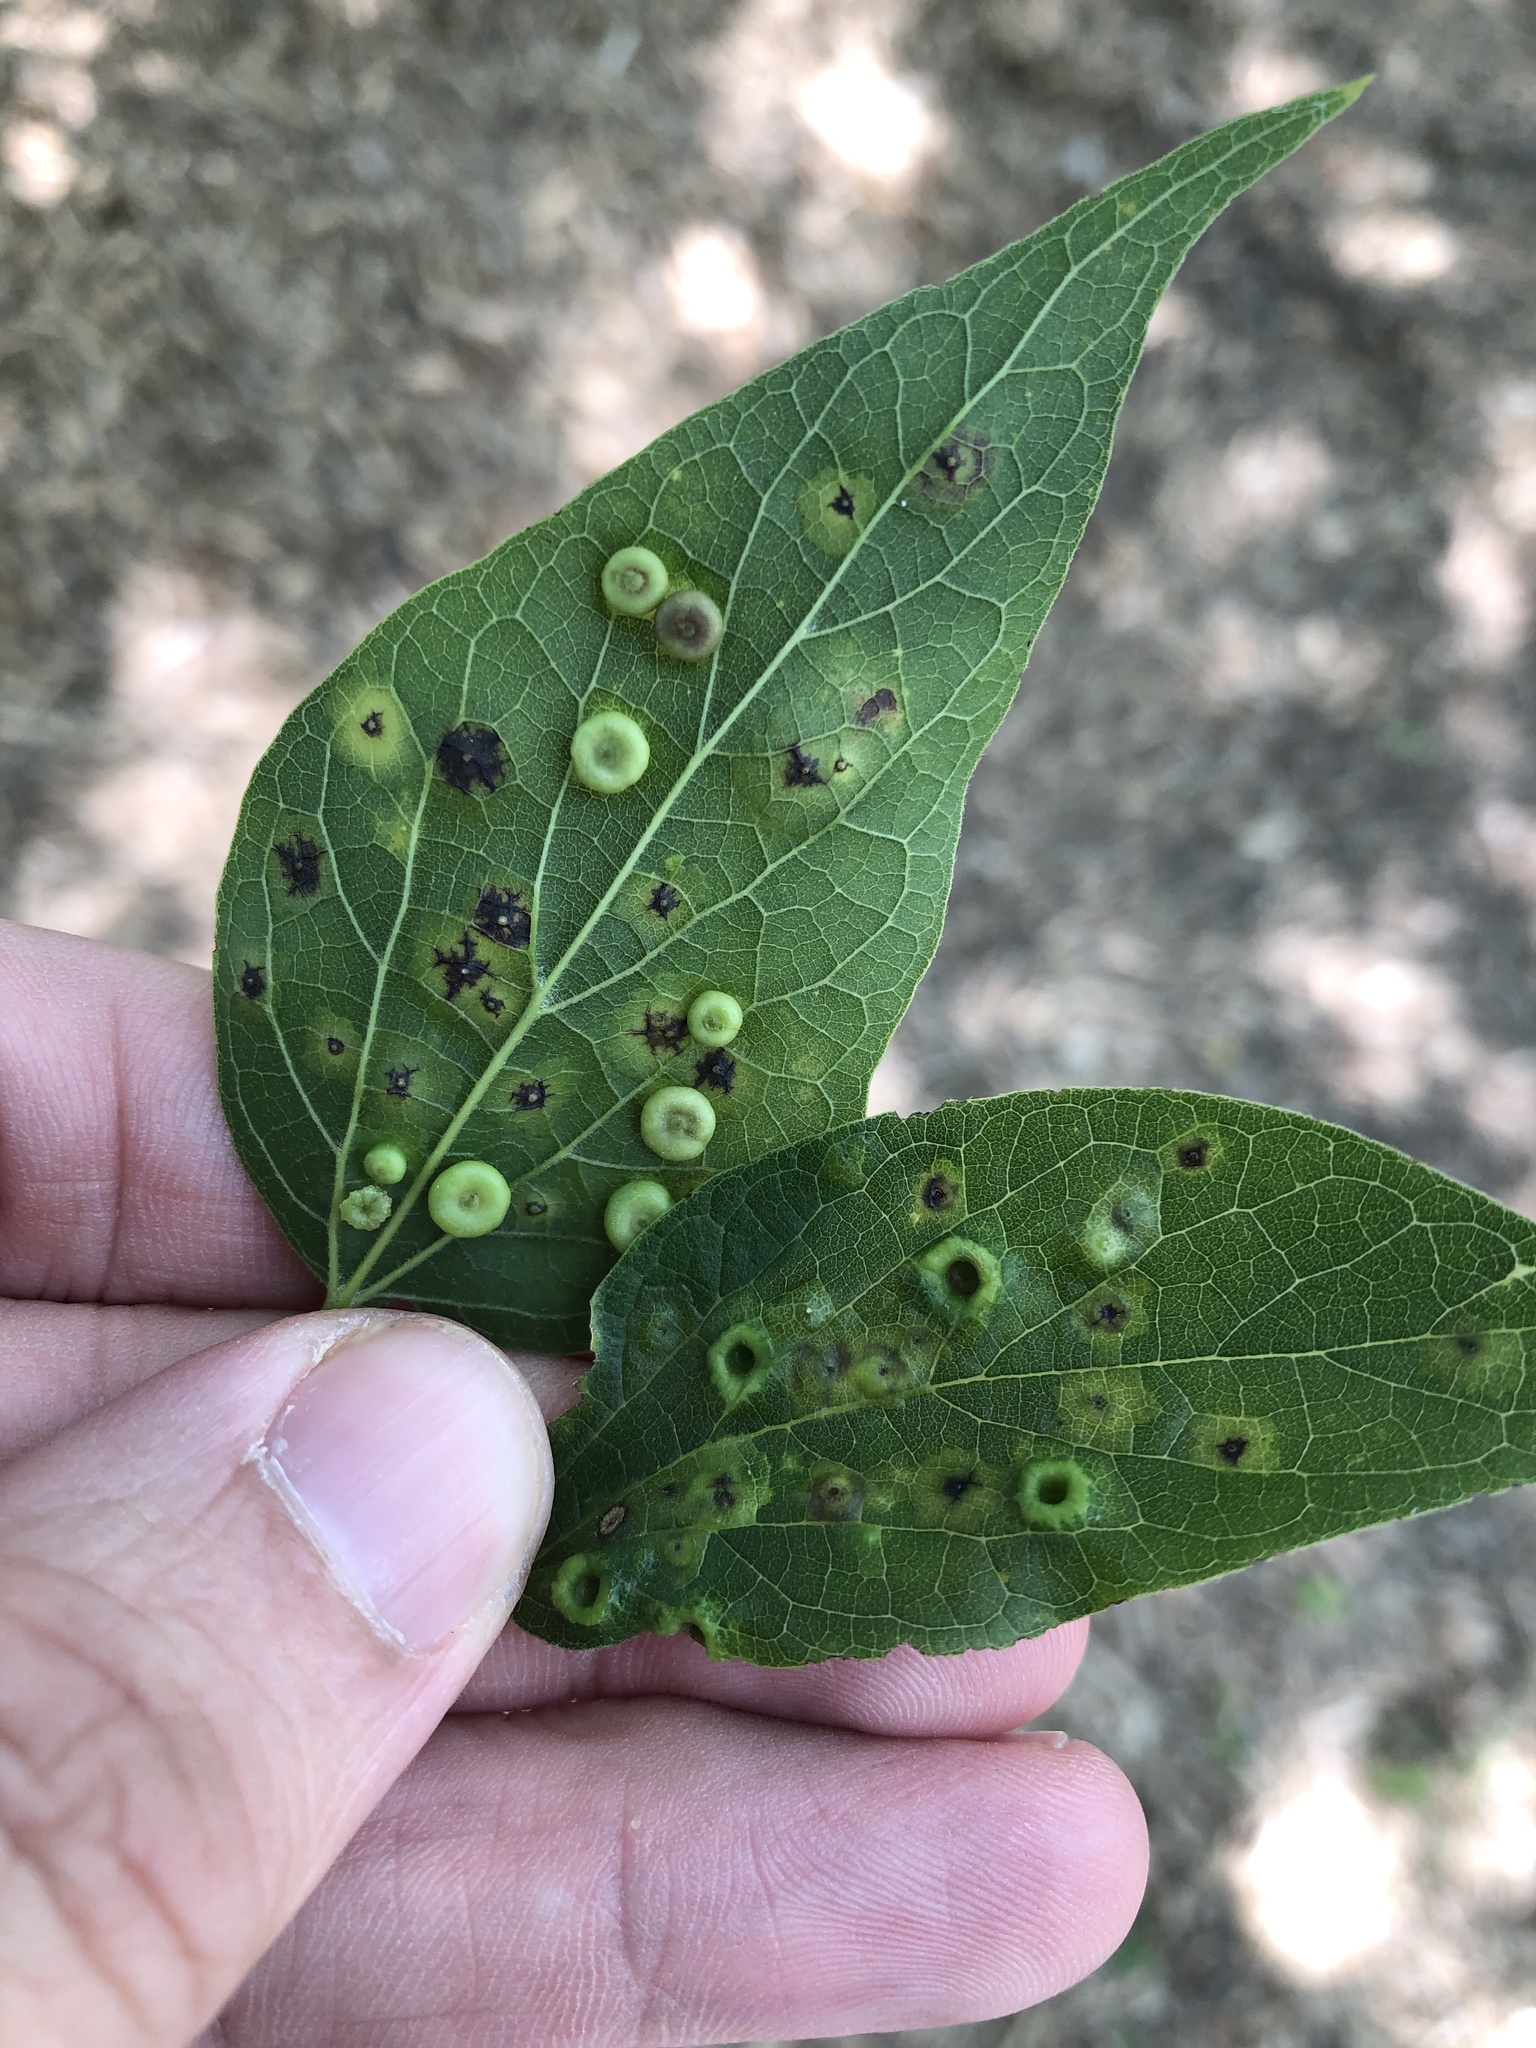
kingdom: Animalia
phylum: Arthropoda
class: Insecta
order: Hemiptera
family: Aphalaridae
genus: Pachypsylla
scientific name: Pachypsylla celtidismamma
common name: Hackberry nipplegall psyllid
